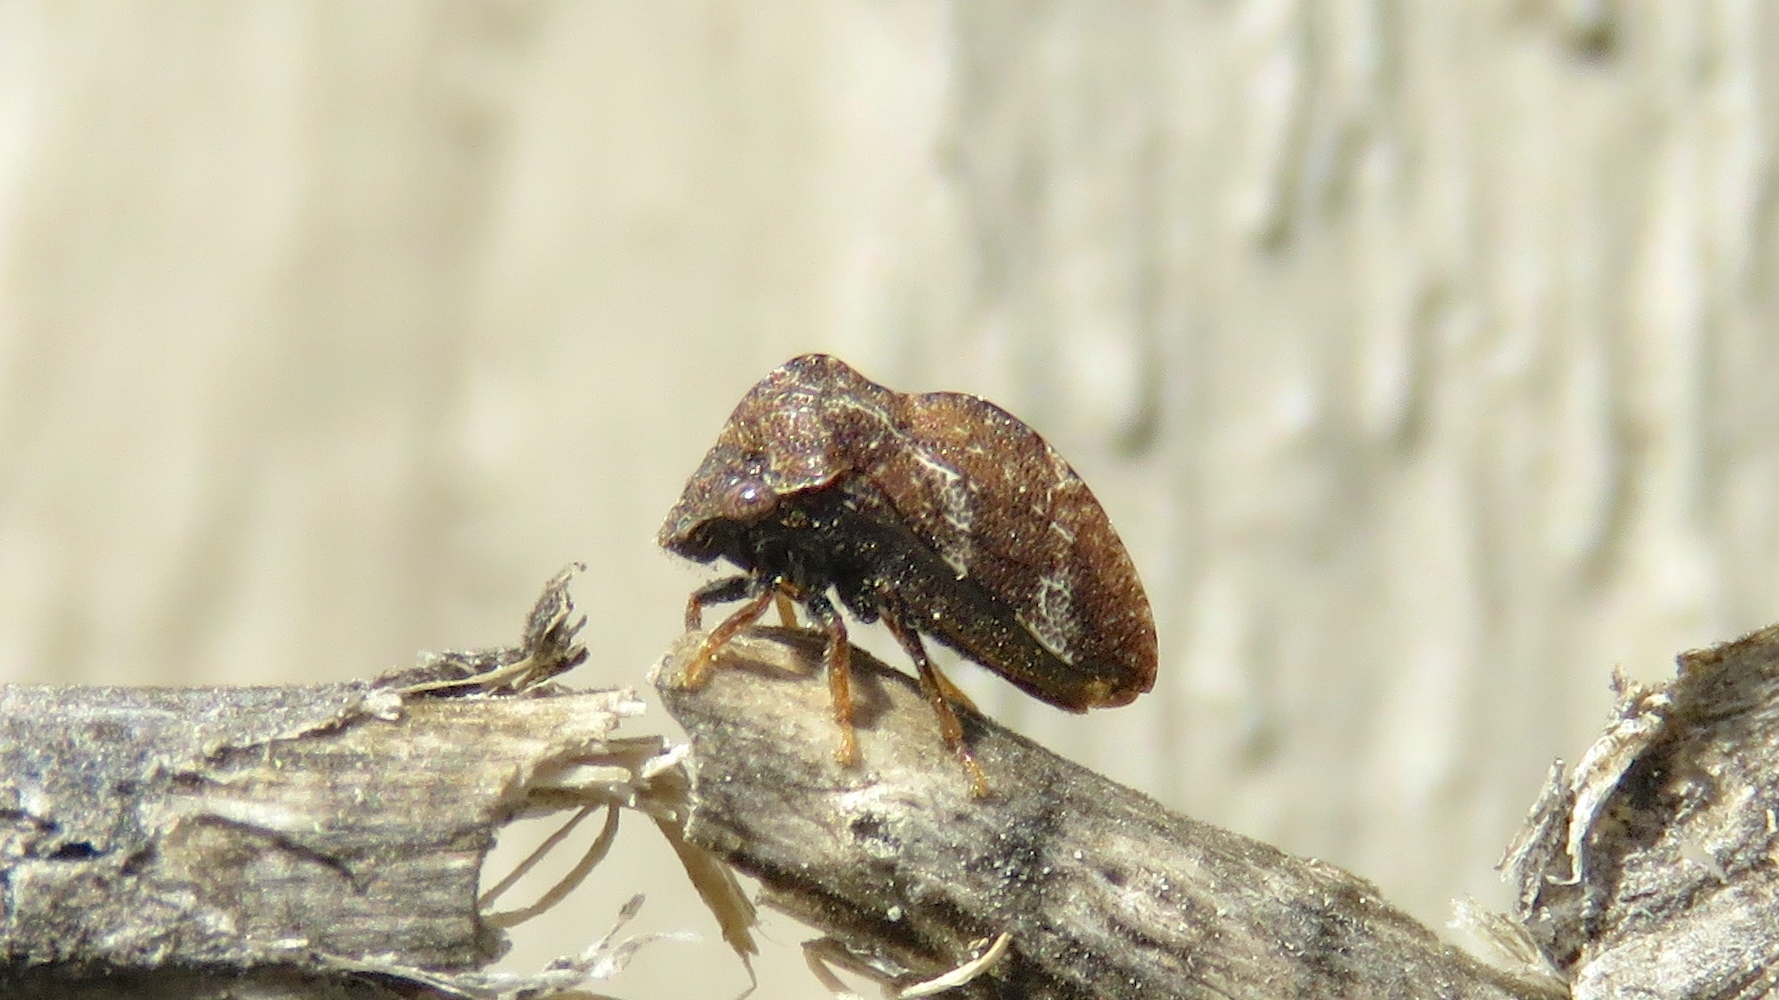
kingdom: Animalia
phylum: Arthropoda
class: Insecta
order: Hemiptera
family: Membracidae
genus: Publilia
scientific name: Publilia concava
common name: Aster treehopper
